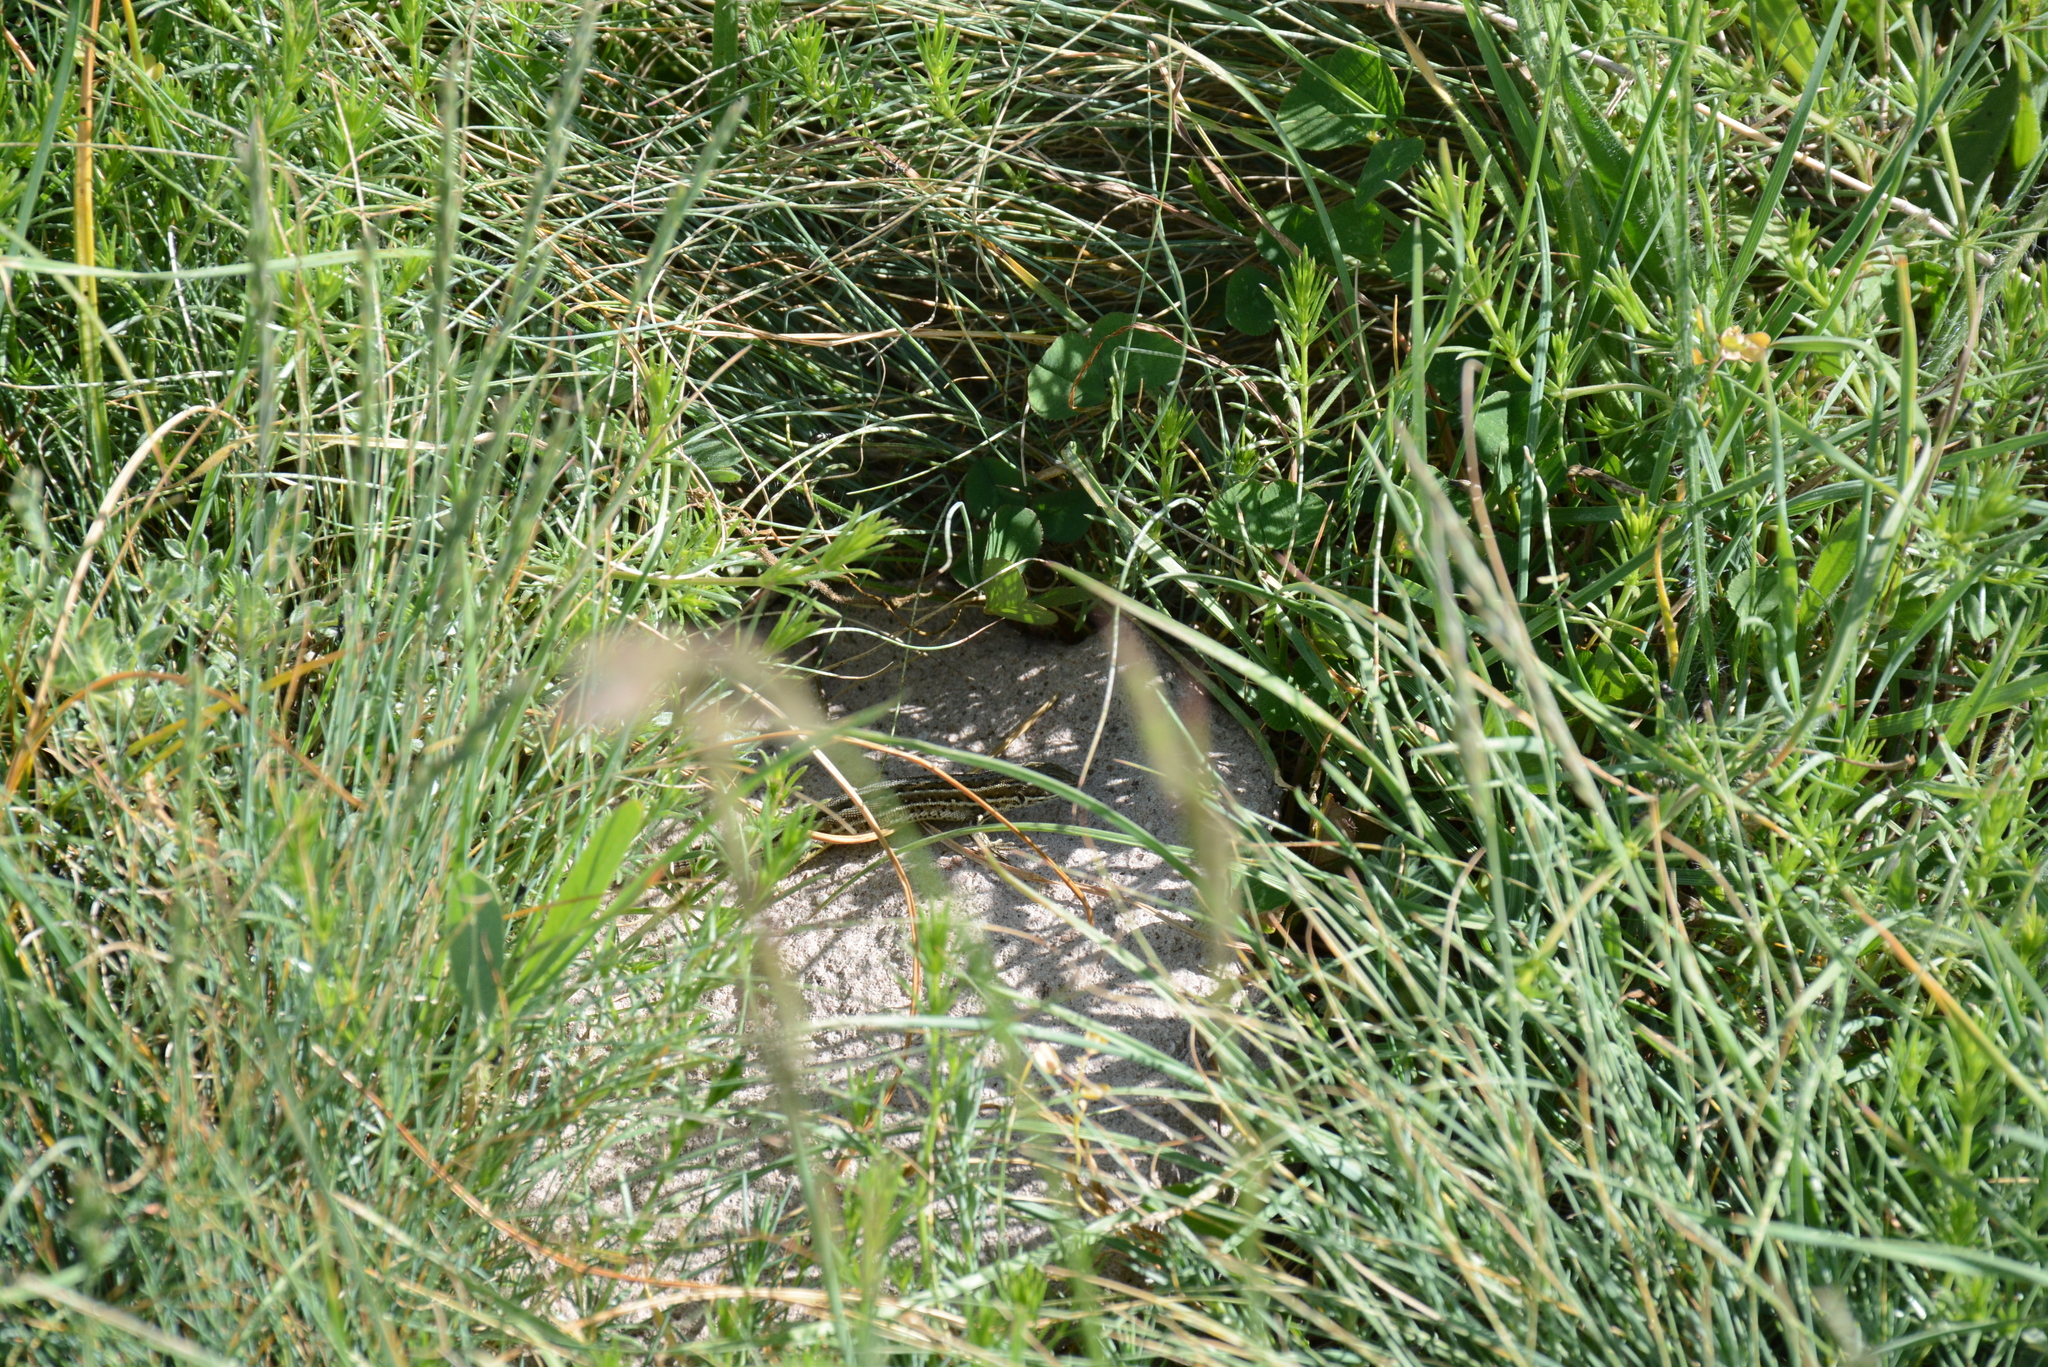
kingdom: Animalia
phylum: Chordata
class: Squamata
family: Lacertidae
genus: Parvilacerta
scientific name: Parvilacerta parva
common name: Dwarf lizard
